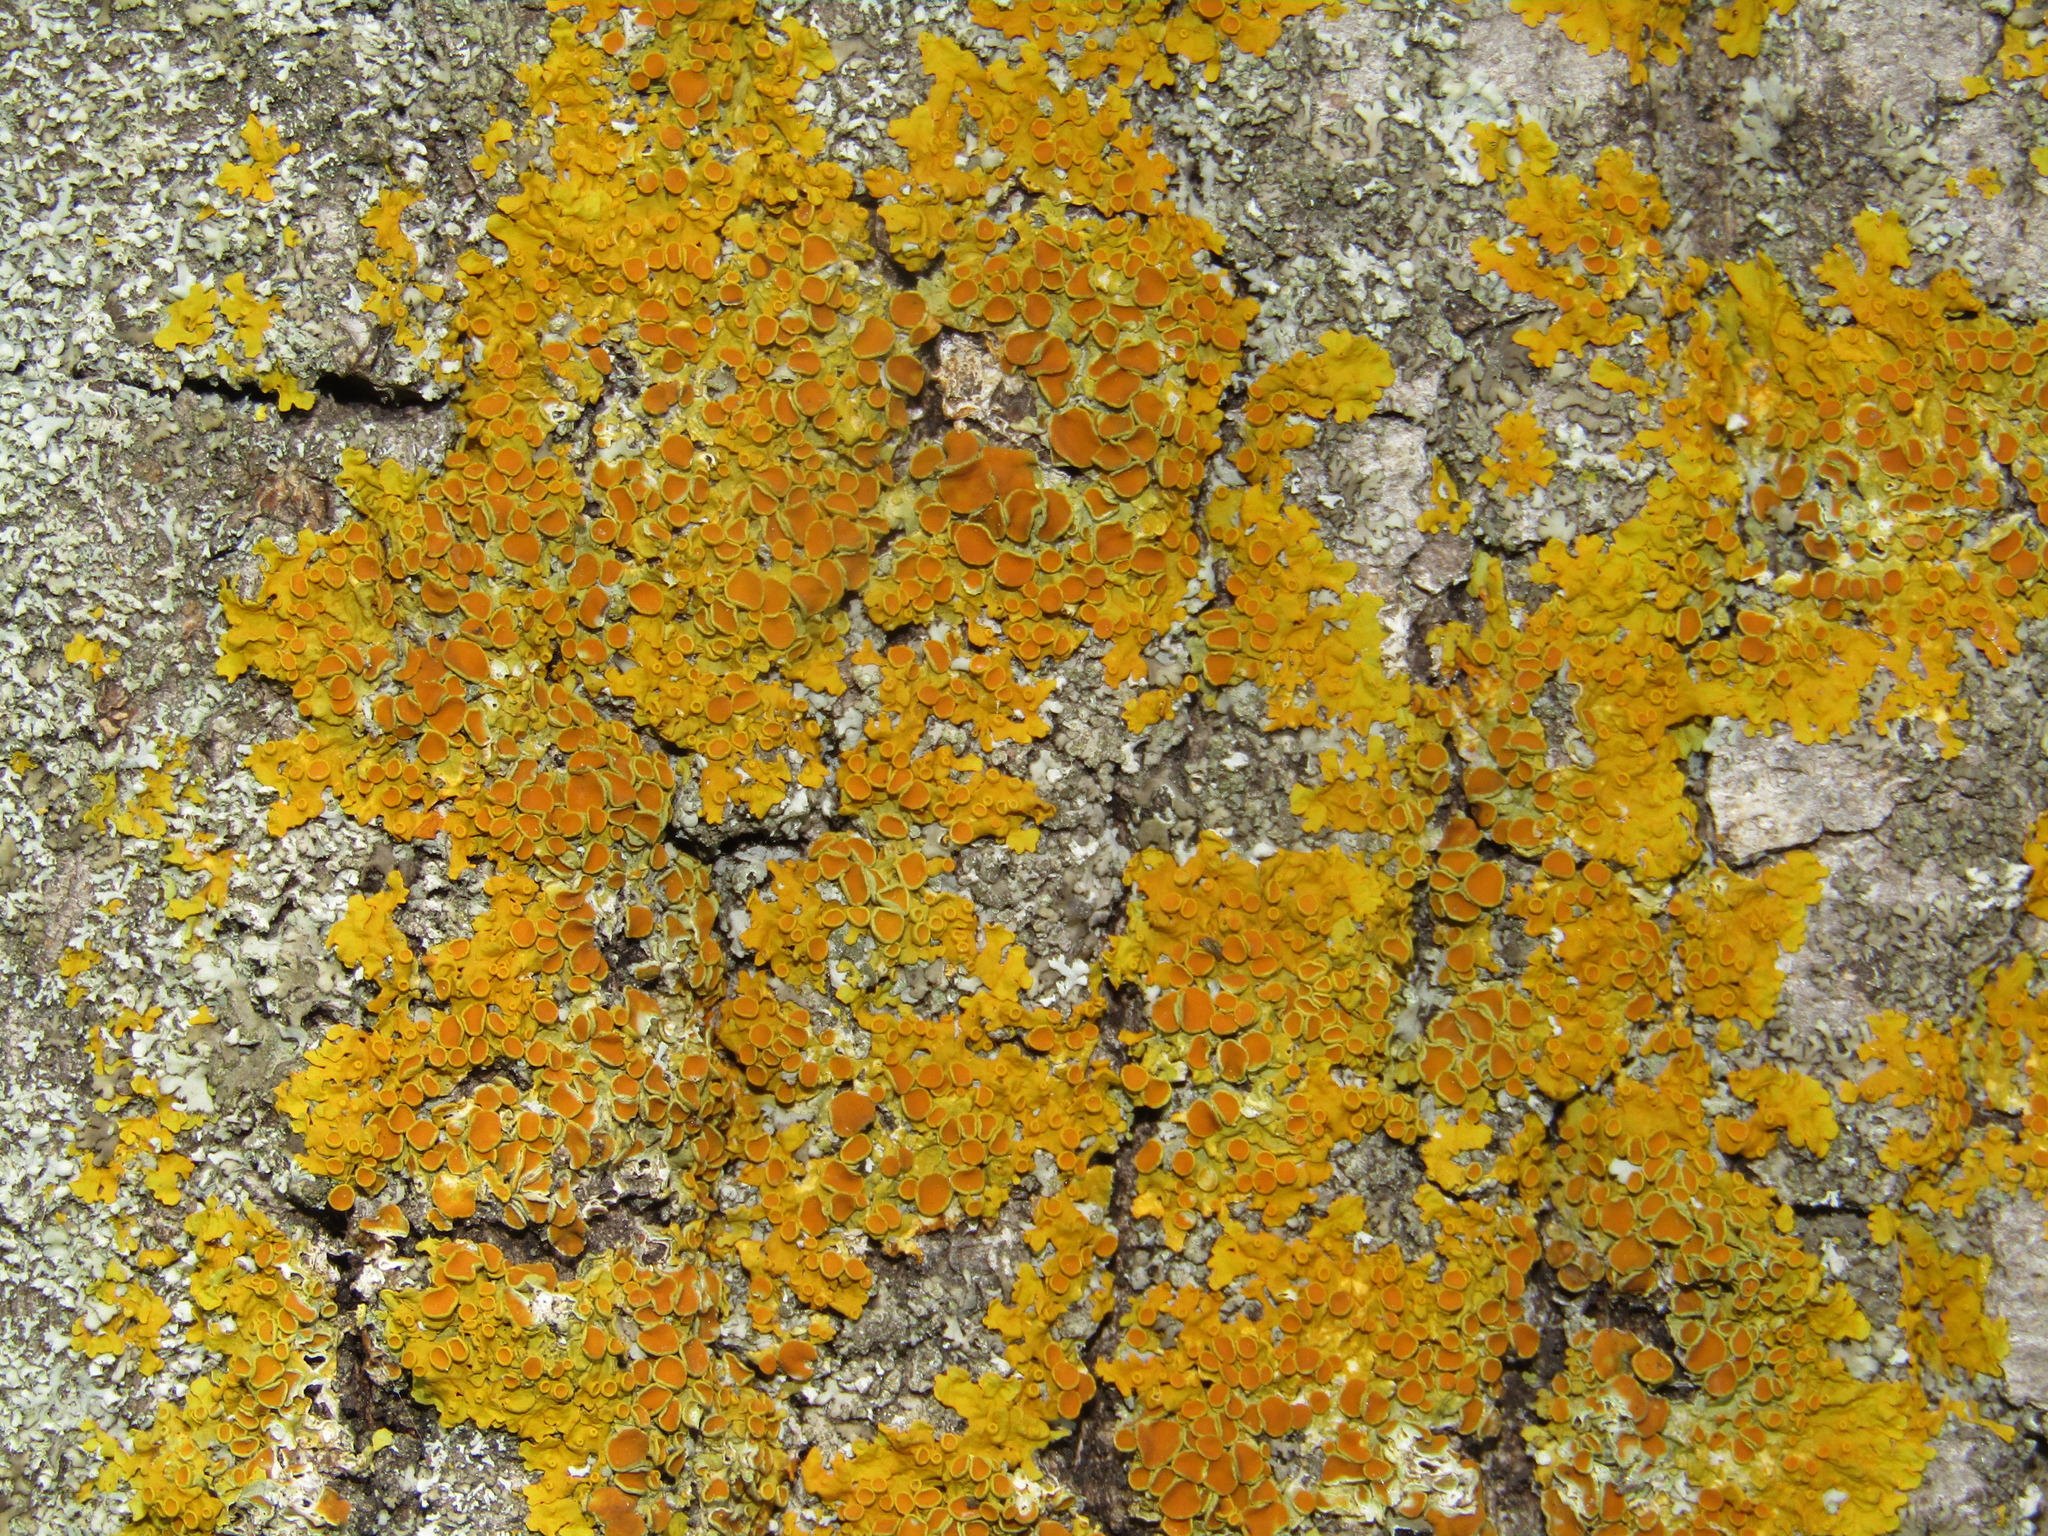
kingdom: Fungi
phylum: Ascomycota
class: Lecanoromycetes
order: Teloschistales
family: Teloschistaceae
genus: Xanthoria
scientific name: Xanthoria parietina
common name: Common orange lichen
